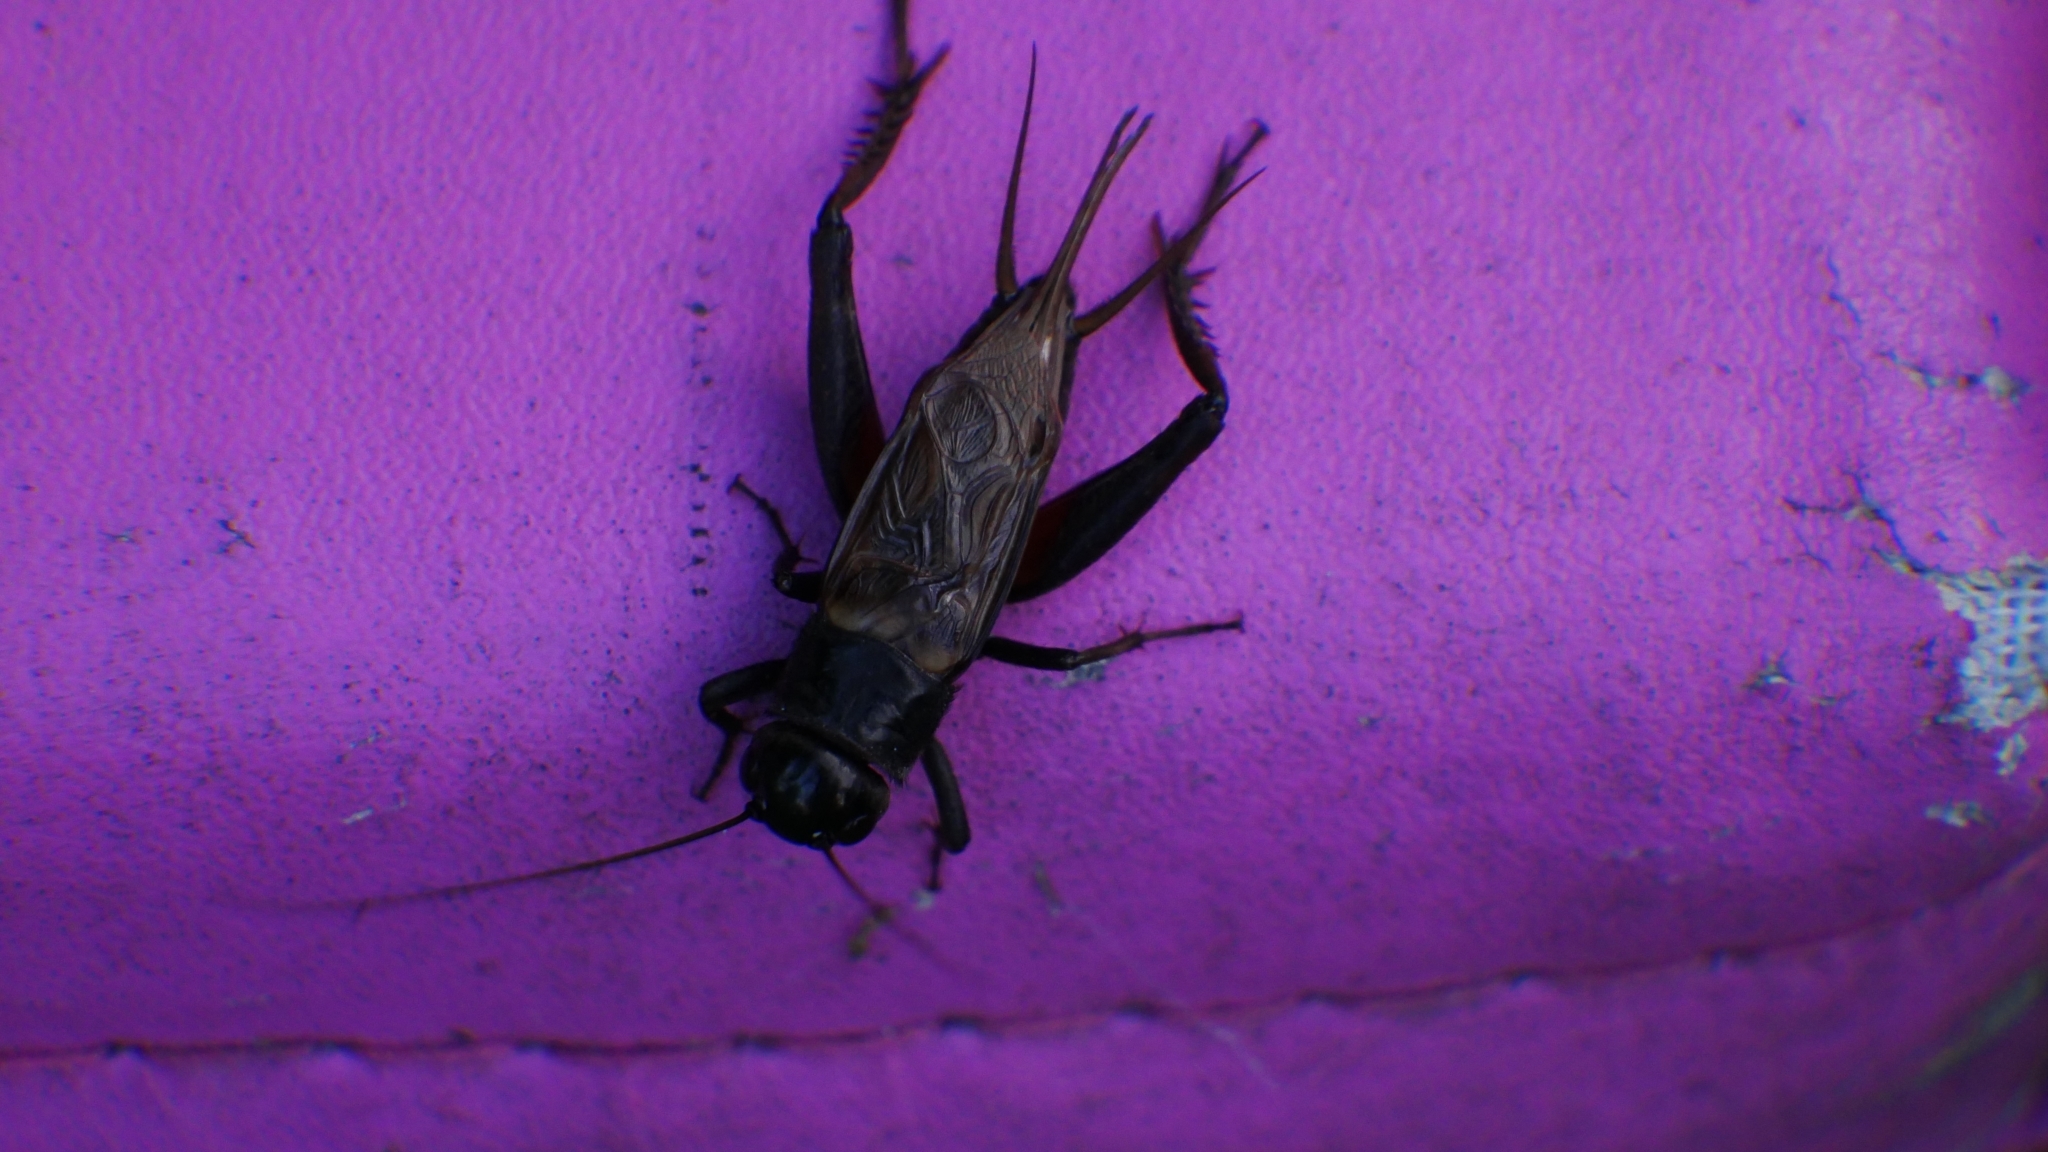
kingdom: Animalia
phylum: Arthropoda
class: Insecta
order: Orthoptera
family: Gryllidae
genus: Gryllus
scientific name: Gryllus
